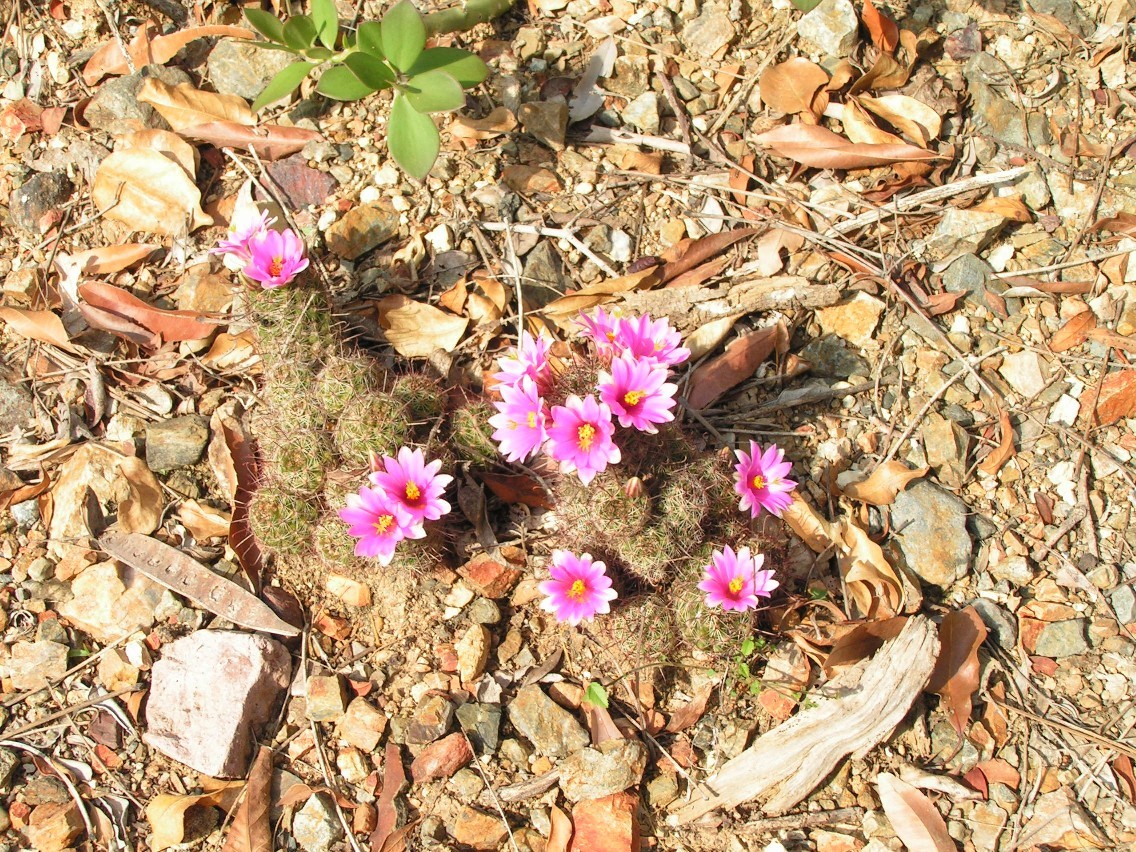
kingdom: Plantae
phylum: Tracheophyta
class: Magnoliopsida
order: Caryophyllales
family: Cactaceae
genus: Cochemiea
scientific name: Cochemiea mazatlanensis
